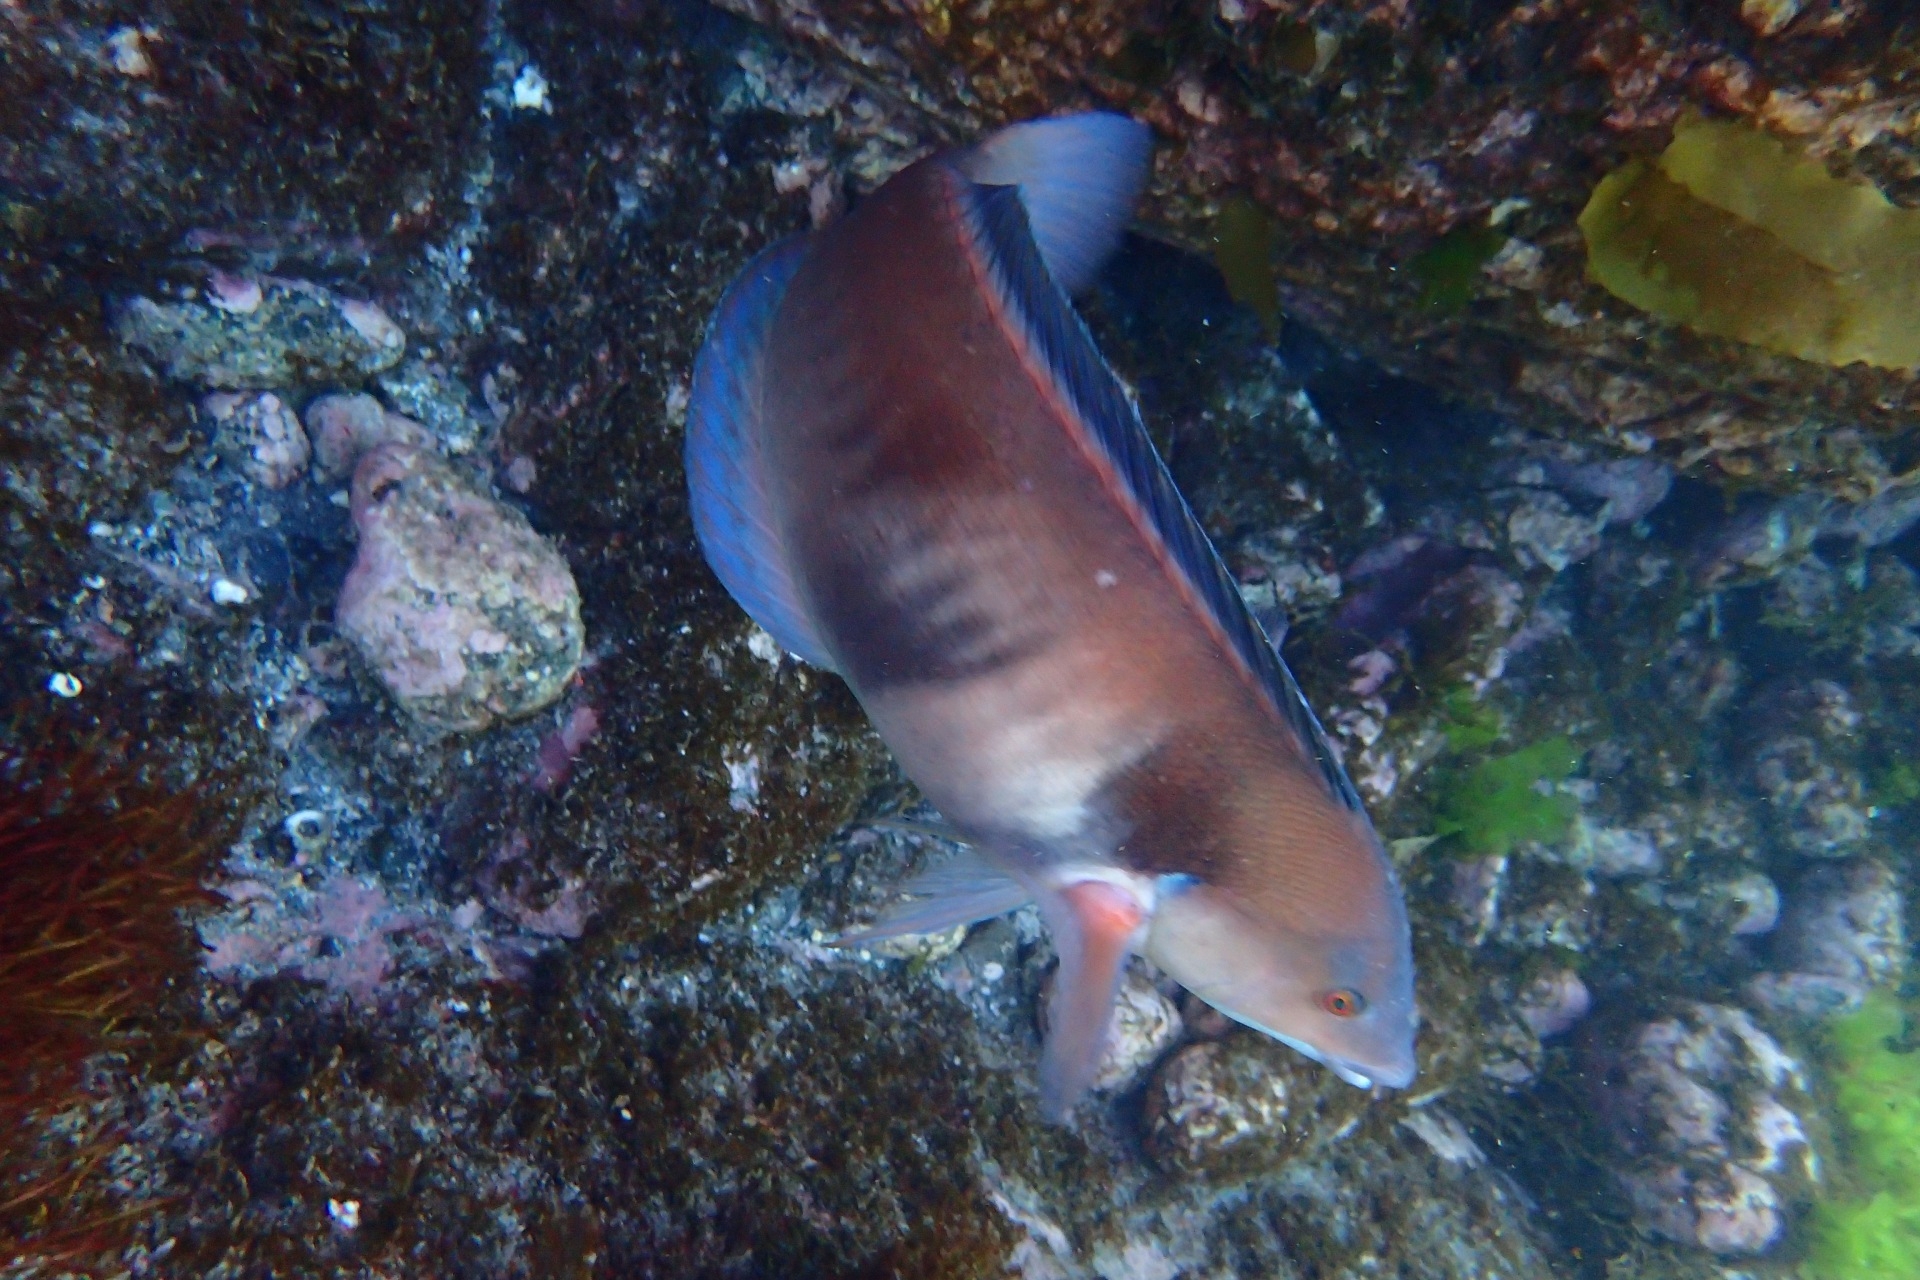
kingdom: Animalia
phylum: Chordata
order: Perciformes
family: Labridae
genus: Coris
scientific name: Coris sandeyeri
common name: Sandager's wrasse
